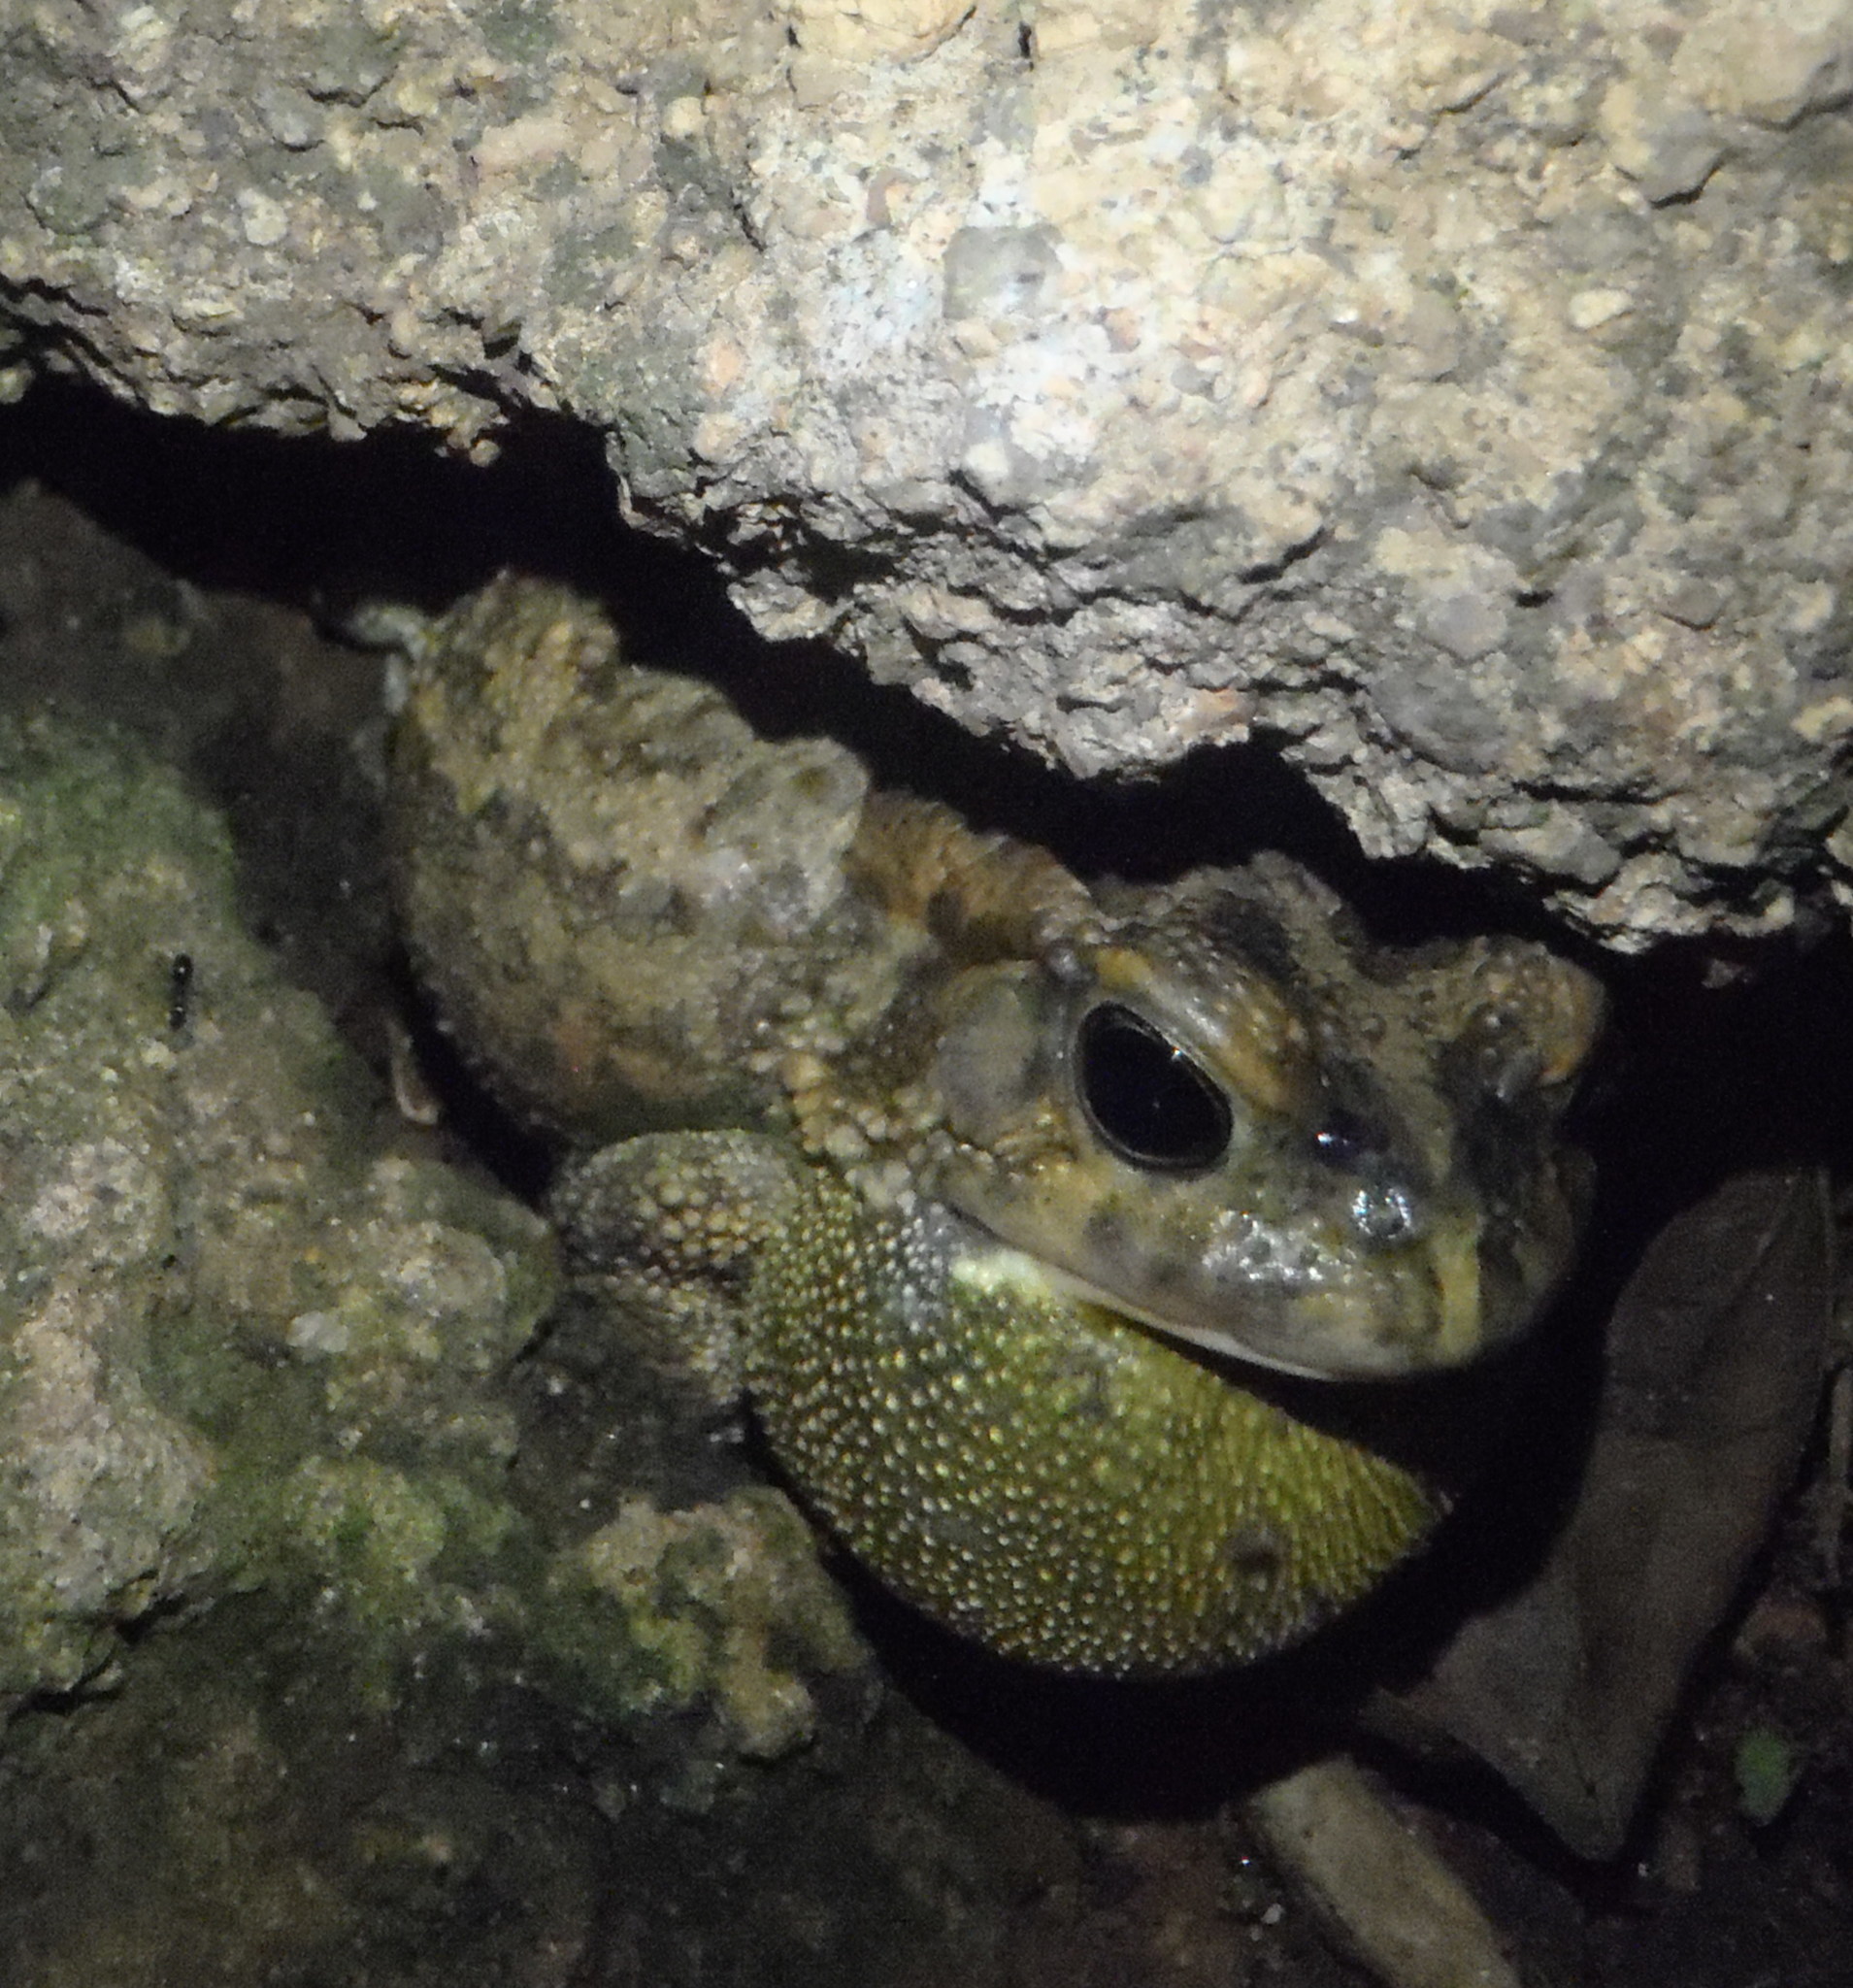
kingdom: Animalia
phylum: Chordata
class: Amphibia
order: Anura
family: Bufonidae
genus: Sclerophrys
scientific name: Sclerophrys gutturalis
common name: African common toad
